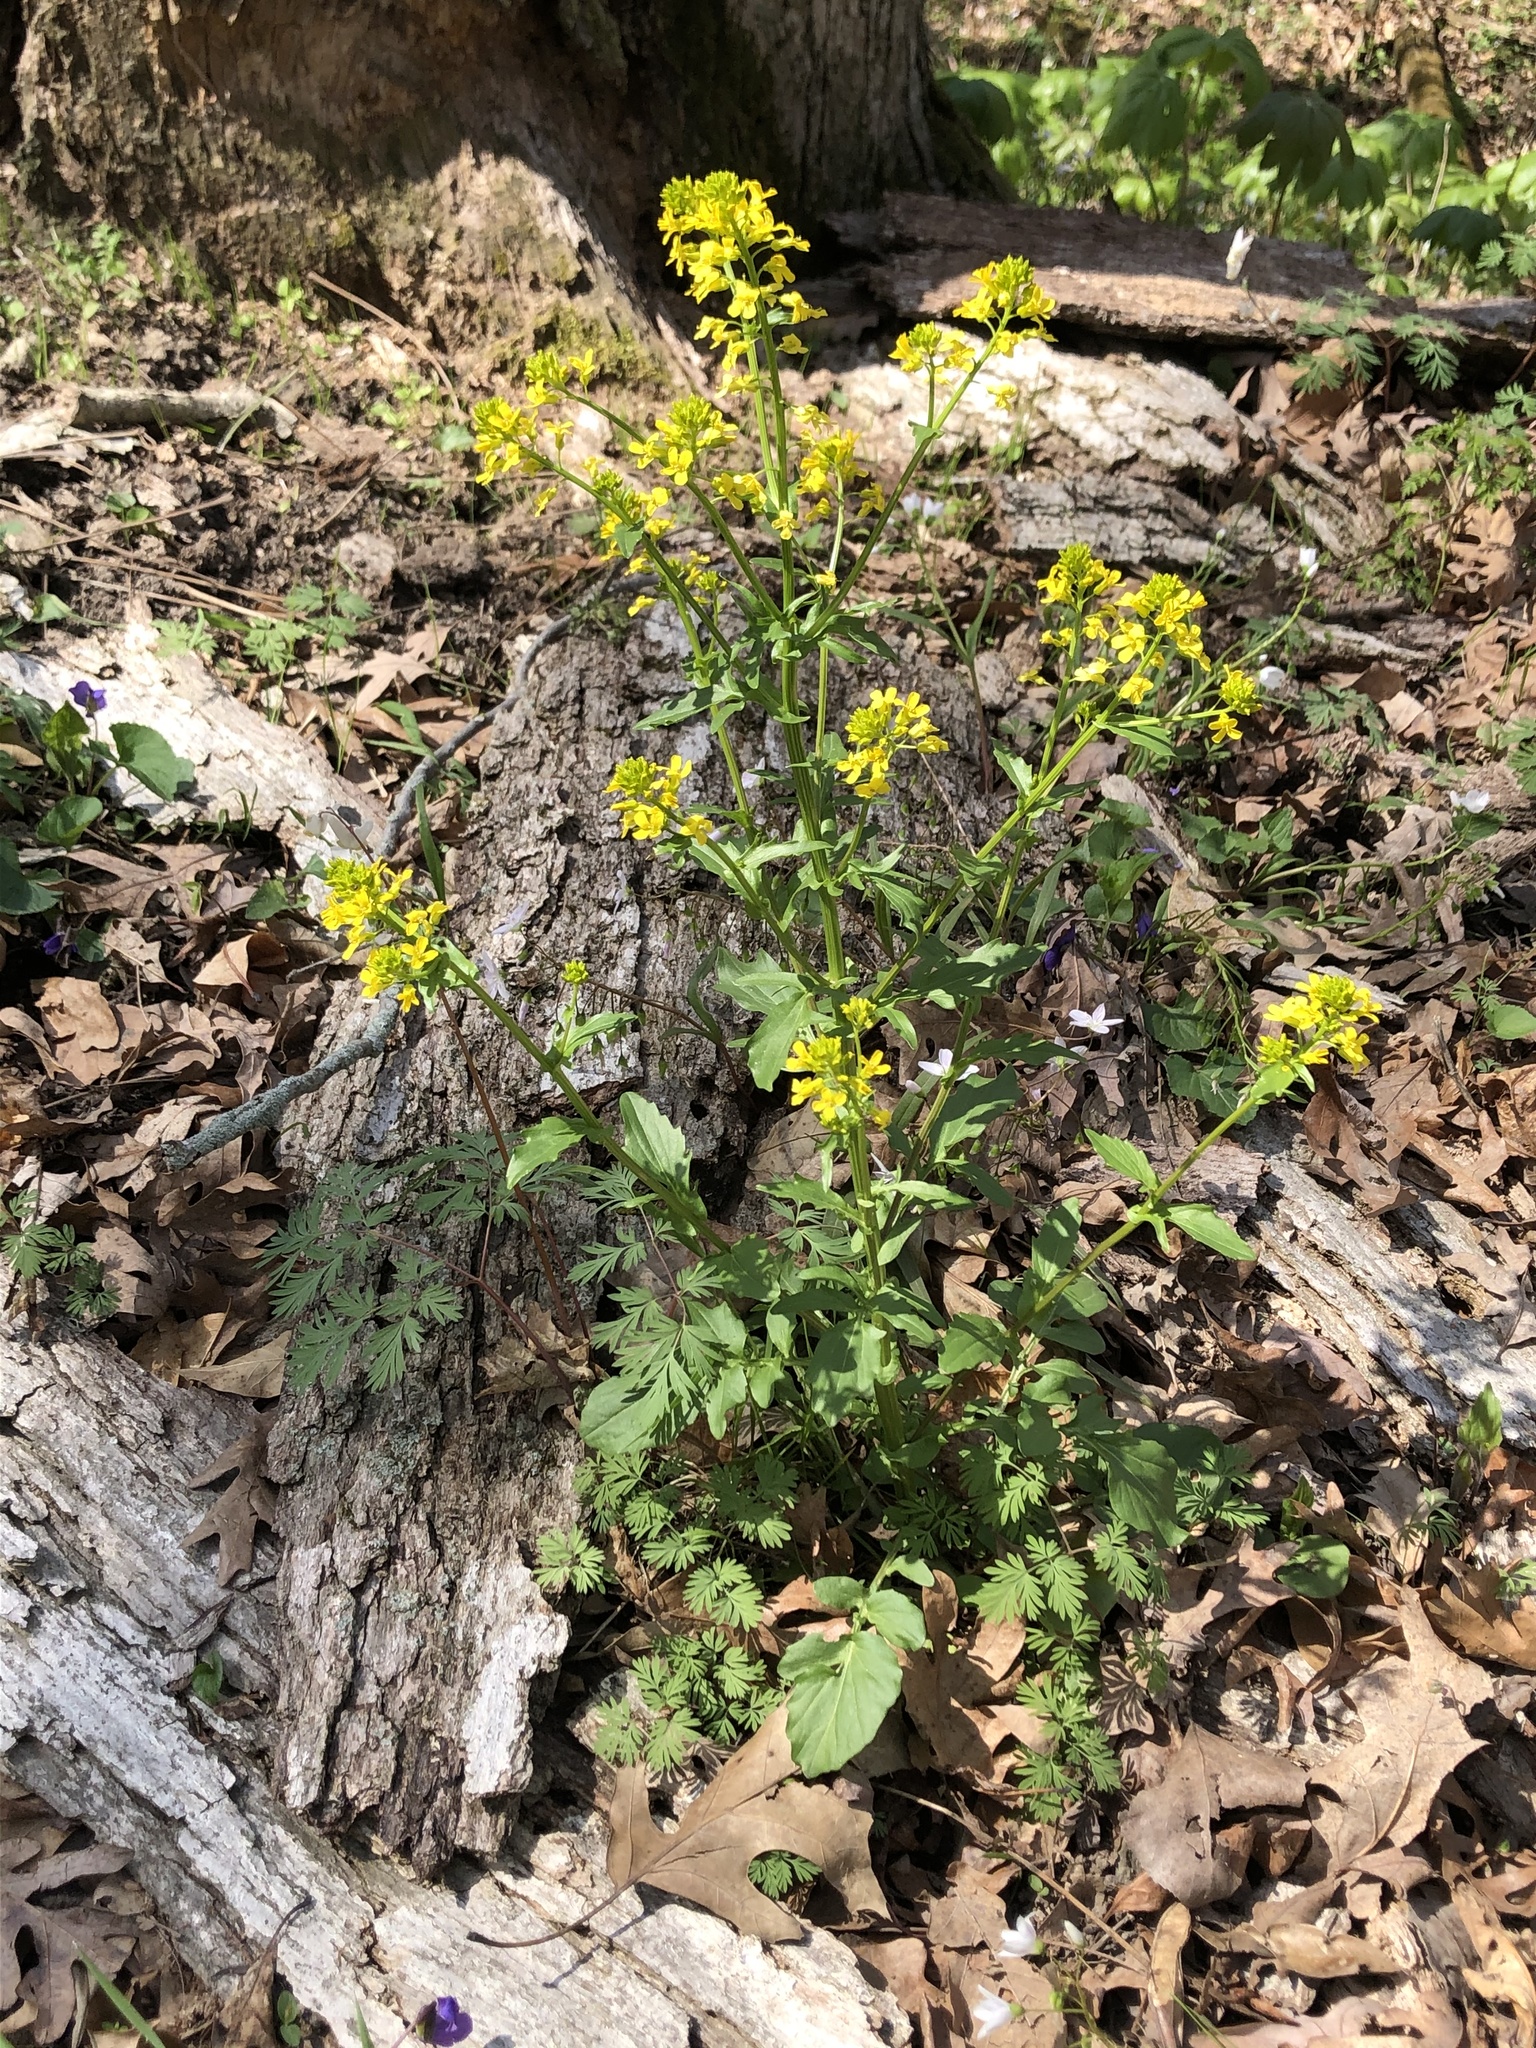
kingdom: Plantae
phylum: Tracheophyta
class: Magnoliopsida
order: Brassicales
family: Brassicaceae
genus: Barbarea
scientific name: Barbarea vulgaris
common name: Cressy-greens
